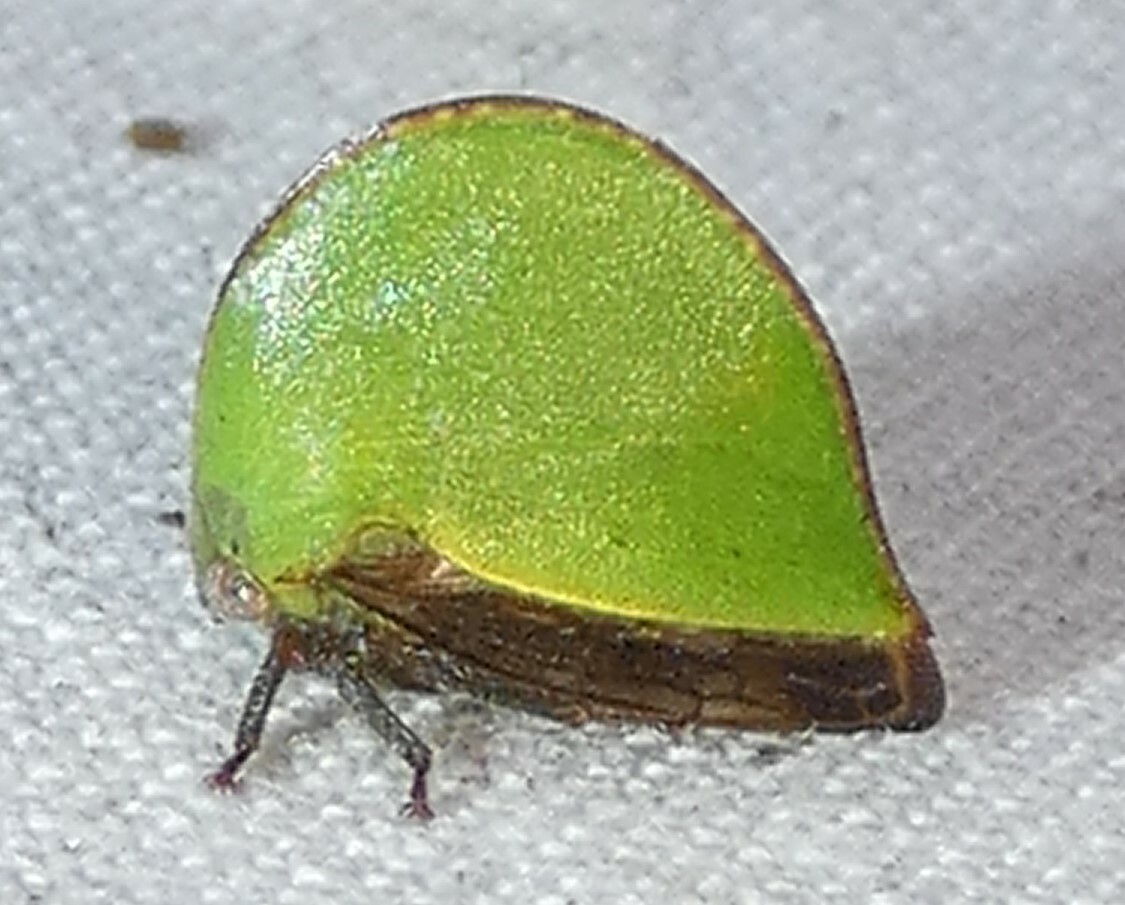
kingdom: Animalia
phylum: Arthropoda
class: Insecta
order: Hemiptera
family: Membracidae
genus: Archasia
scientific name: Archasia belfragei
